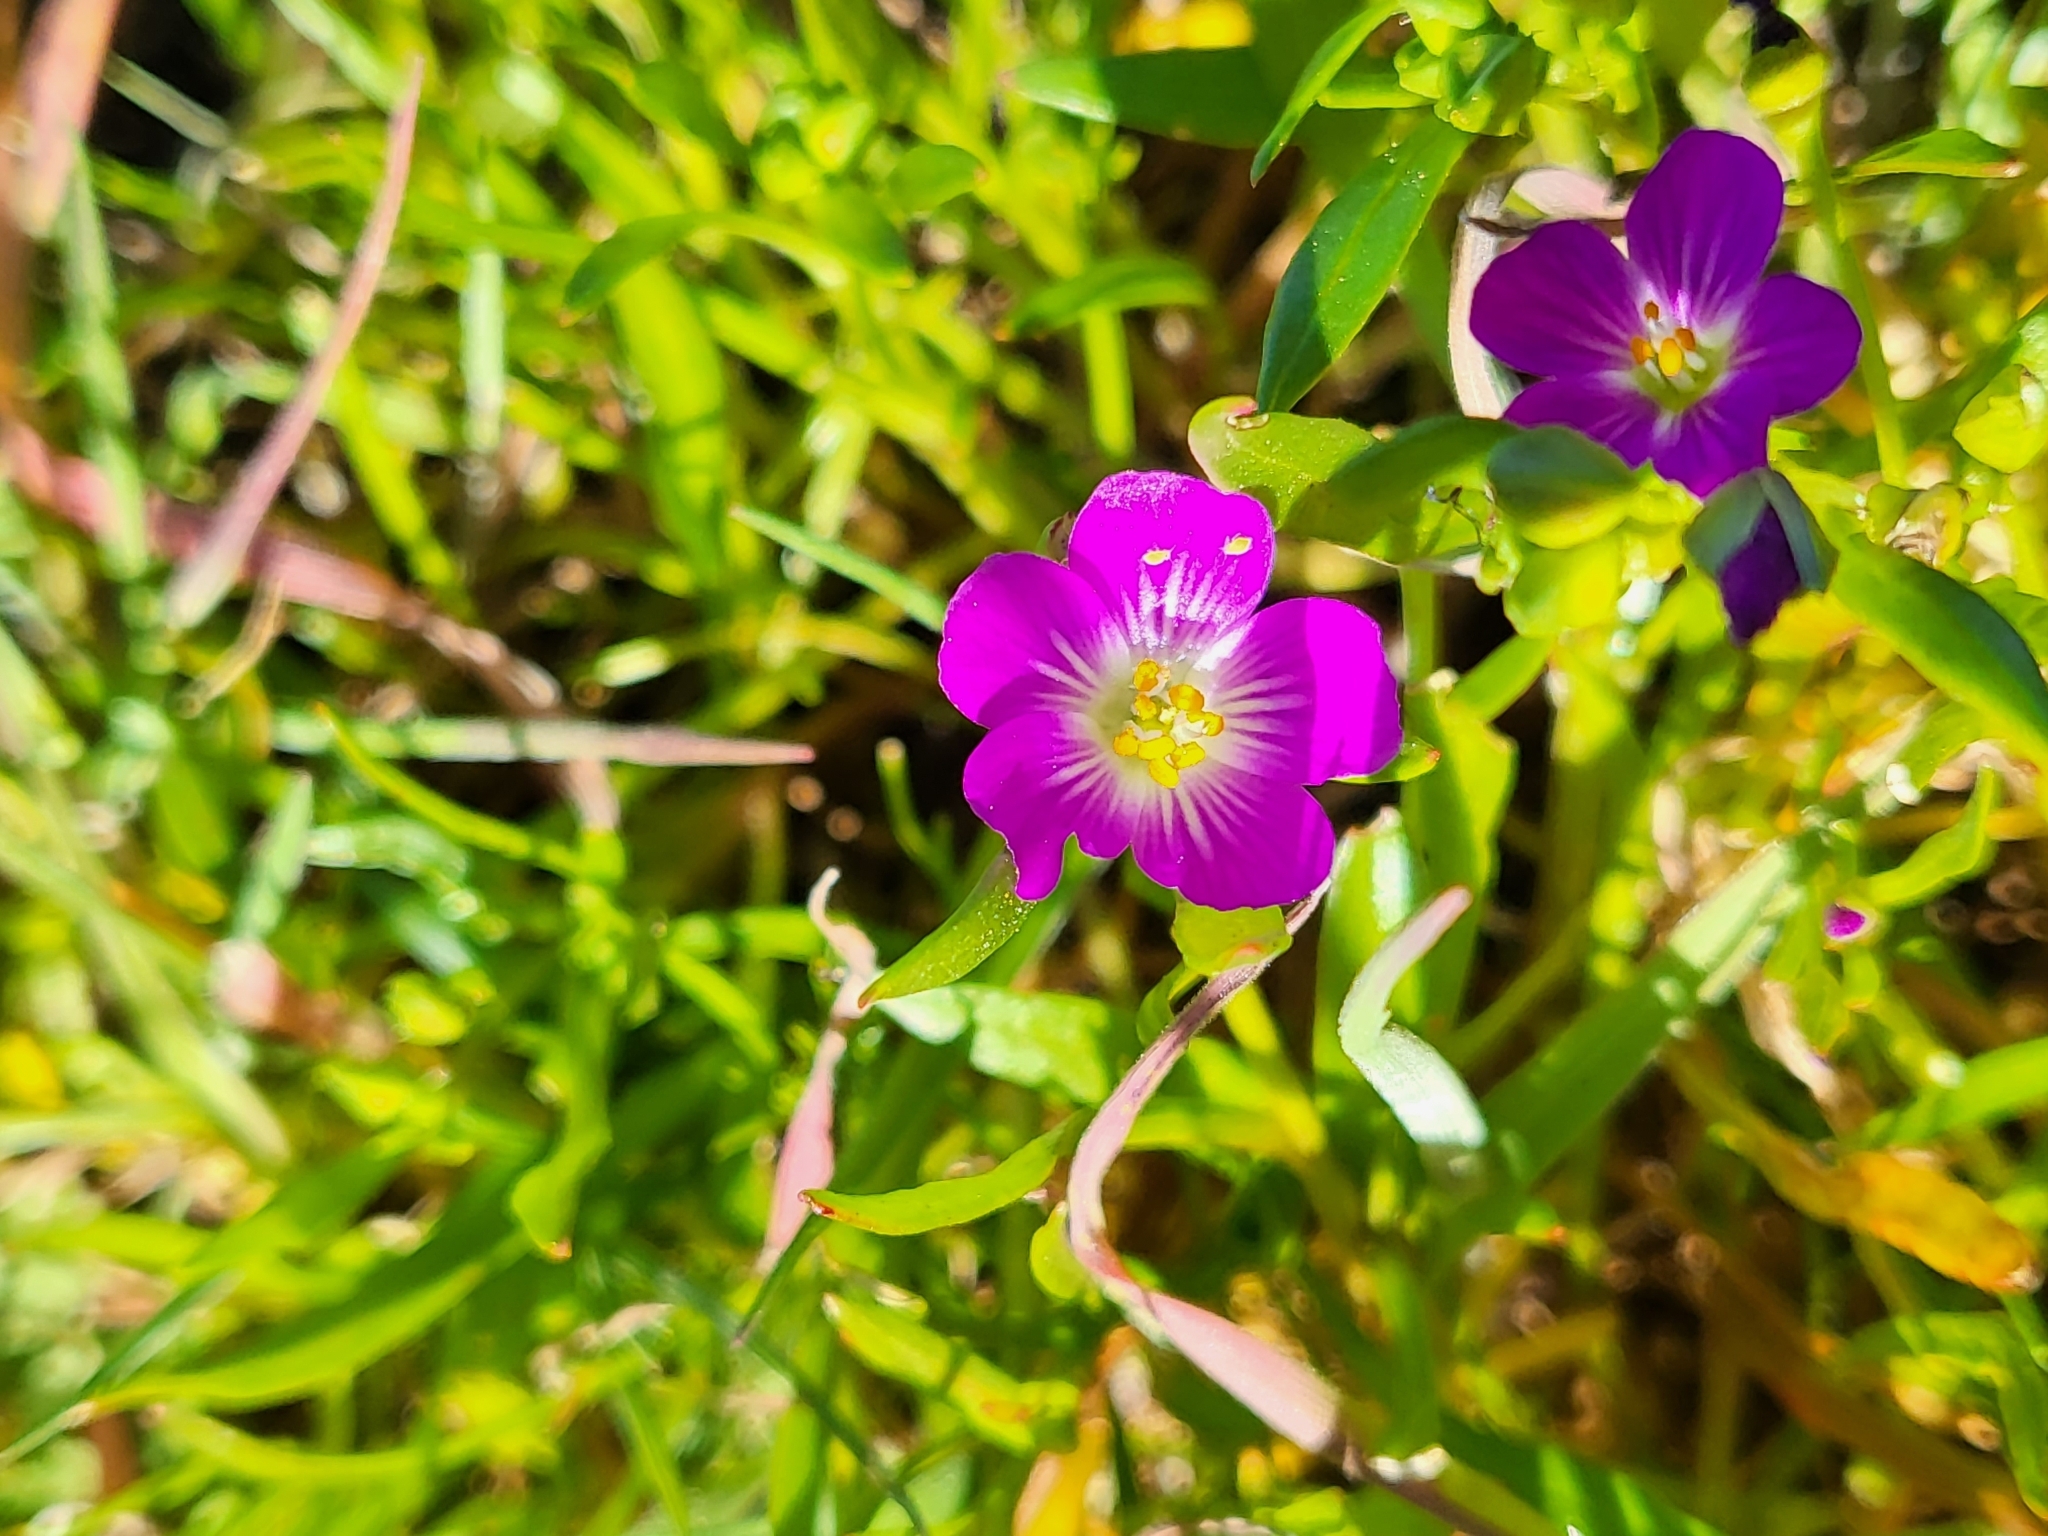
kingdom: Plantae
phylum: Tracheophyta
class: Magnoliopsida
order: Caryophyllales
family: Montiaceae
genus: Calandrinia
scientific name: Calandrinia menziesii
